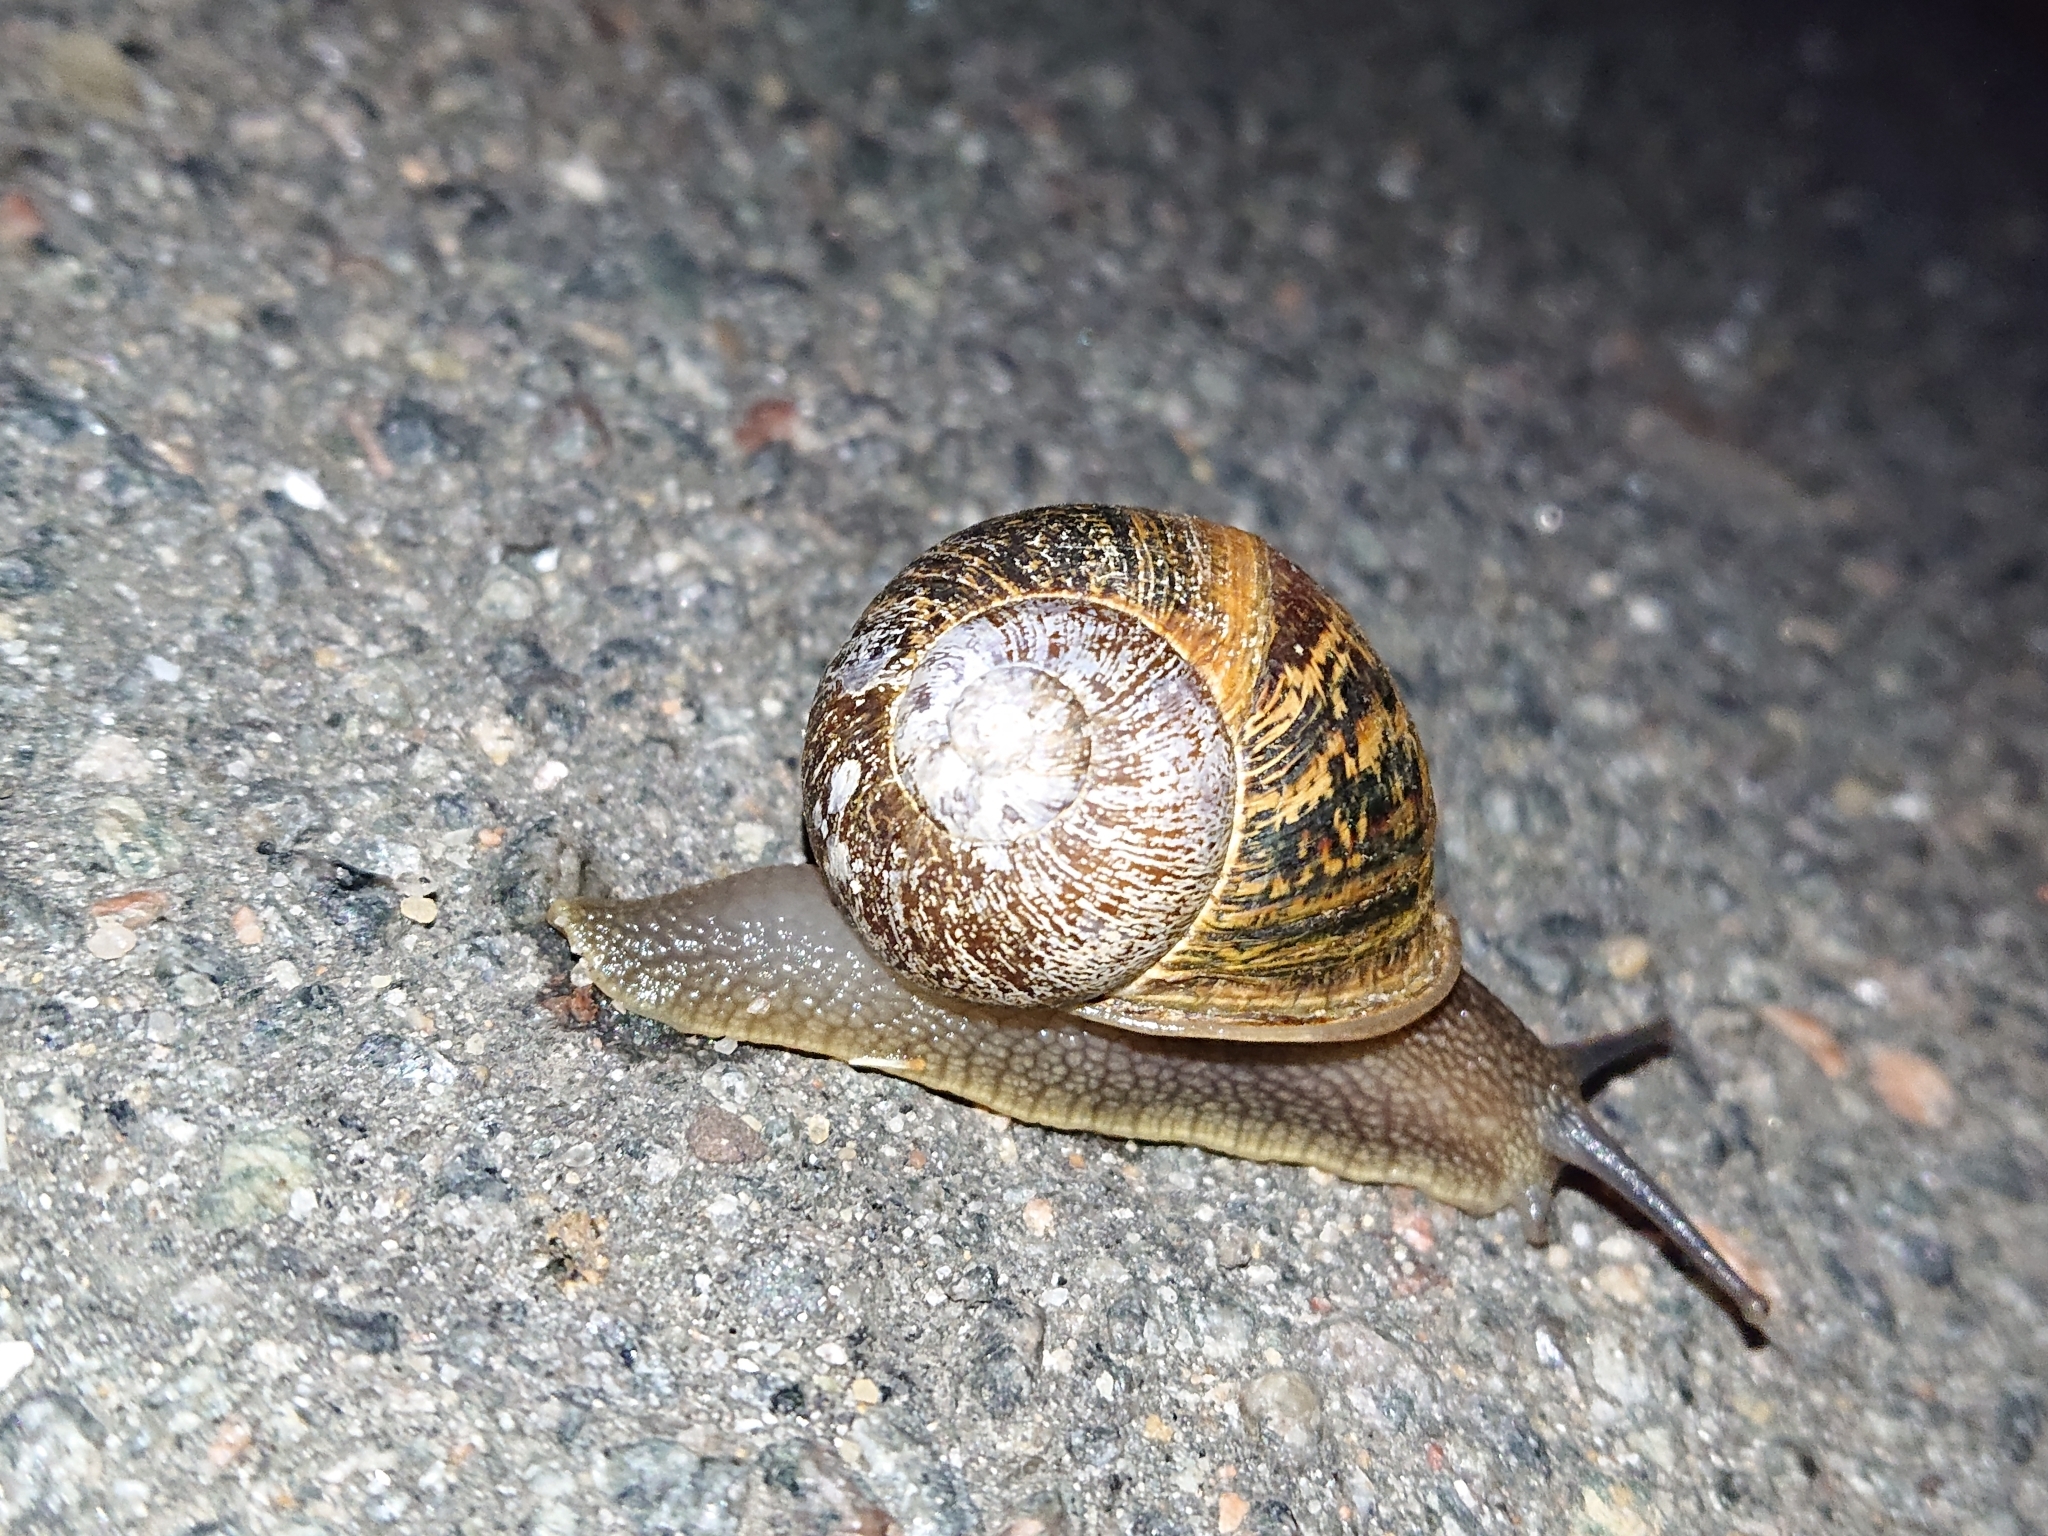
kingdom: Animalia
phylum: Mollusca
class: Gastropoda
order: Stylommatophora
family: Helicidae
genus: Cornu
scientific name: Cornu aspersum
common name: Brown garden snail
